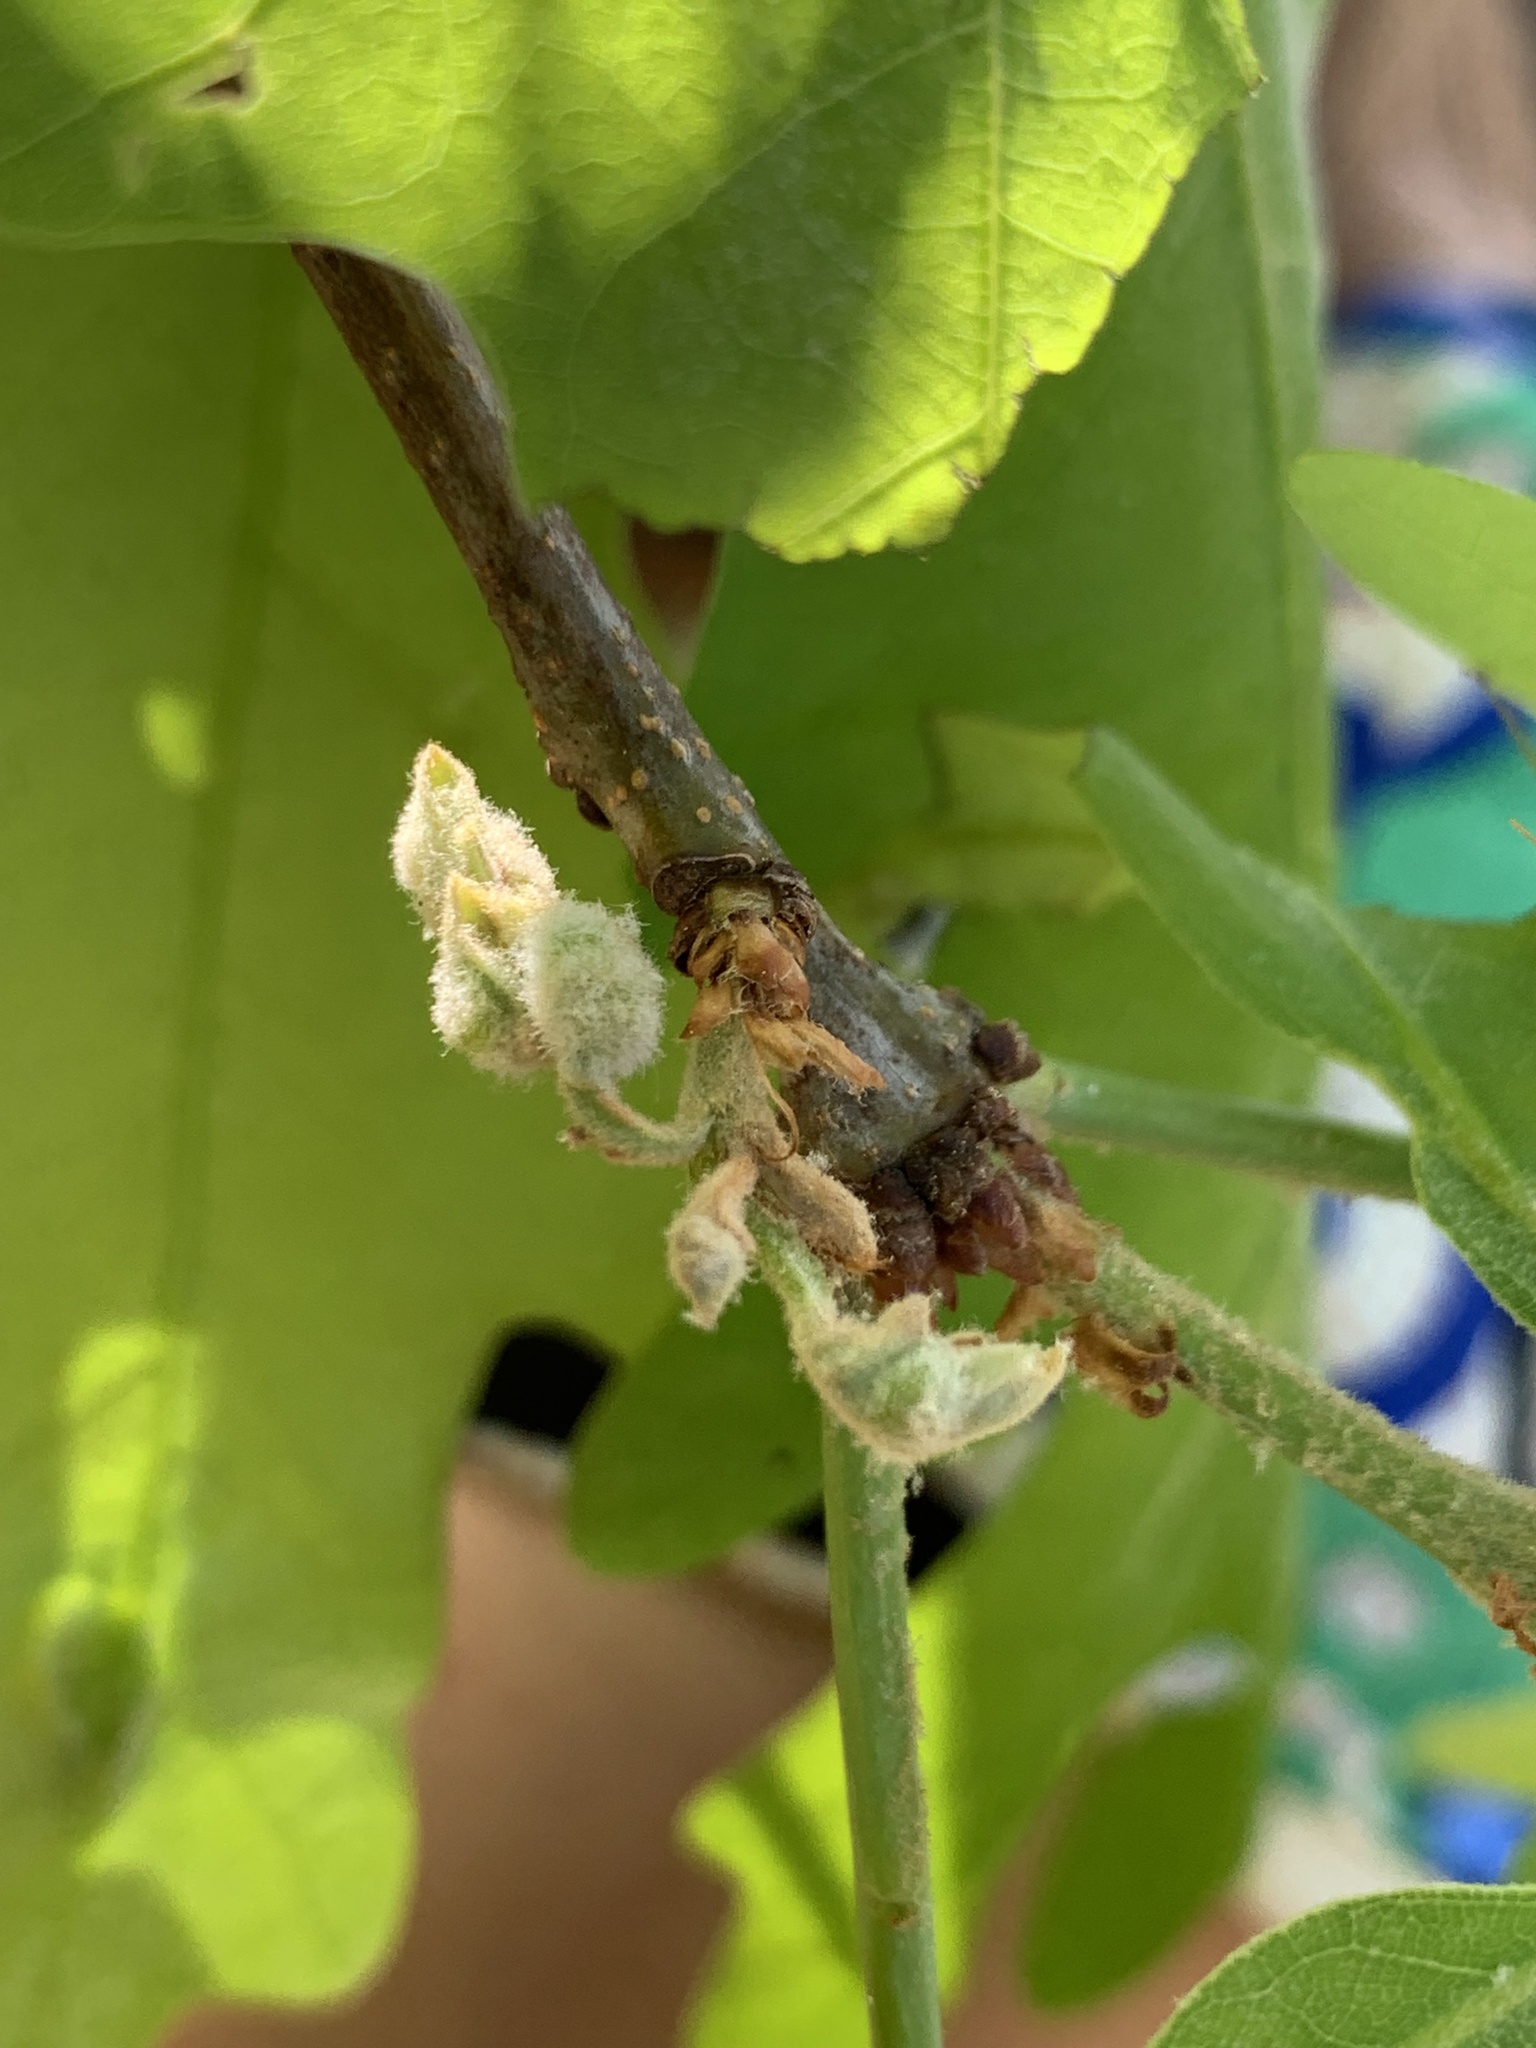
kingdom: Animalia
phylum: Arthropoda
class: Insecta
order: Diptera
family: Cecidomyiidae
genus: Macrodiplosis
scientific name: Macrodiplosis niveipila
